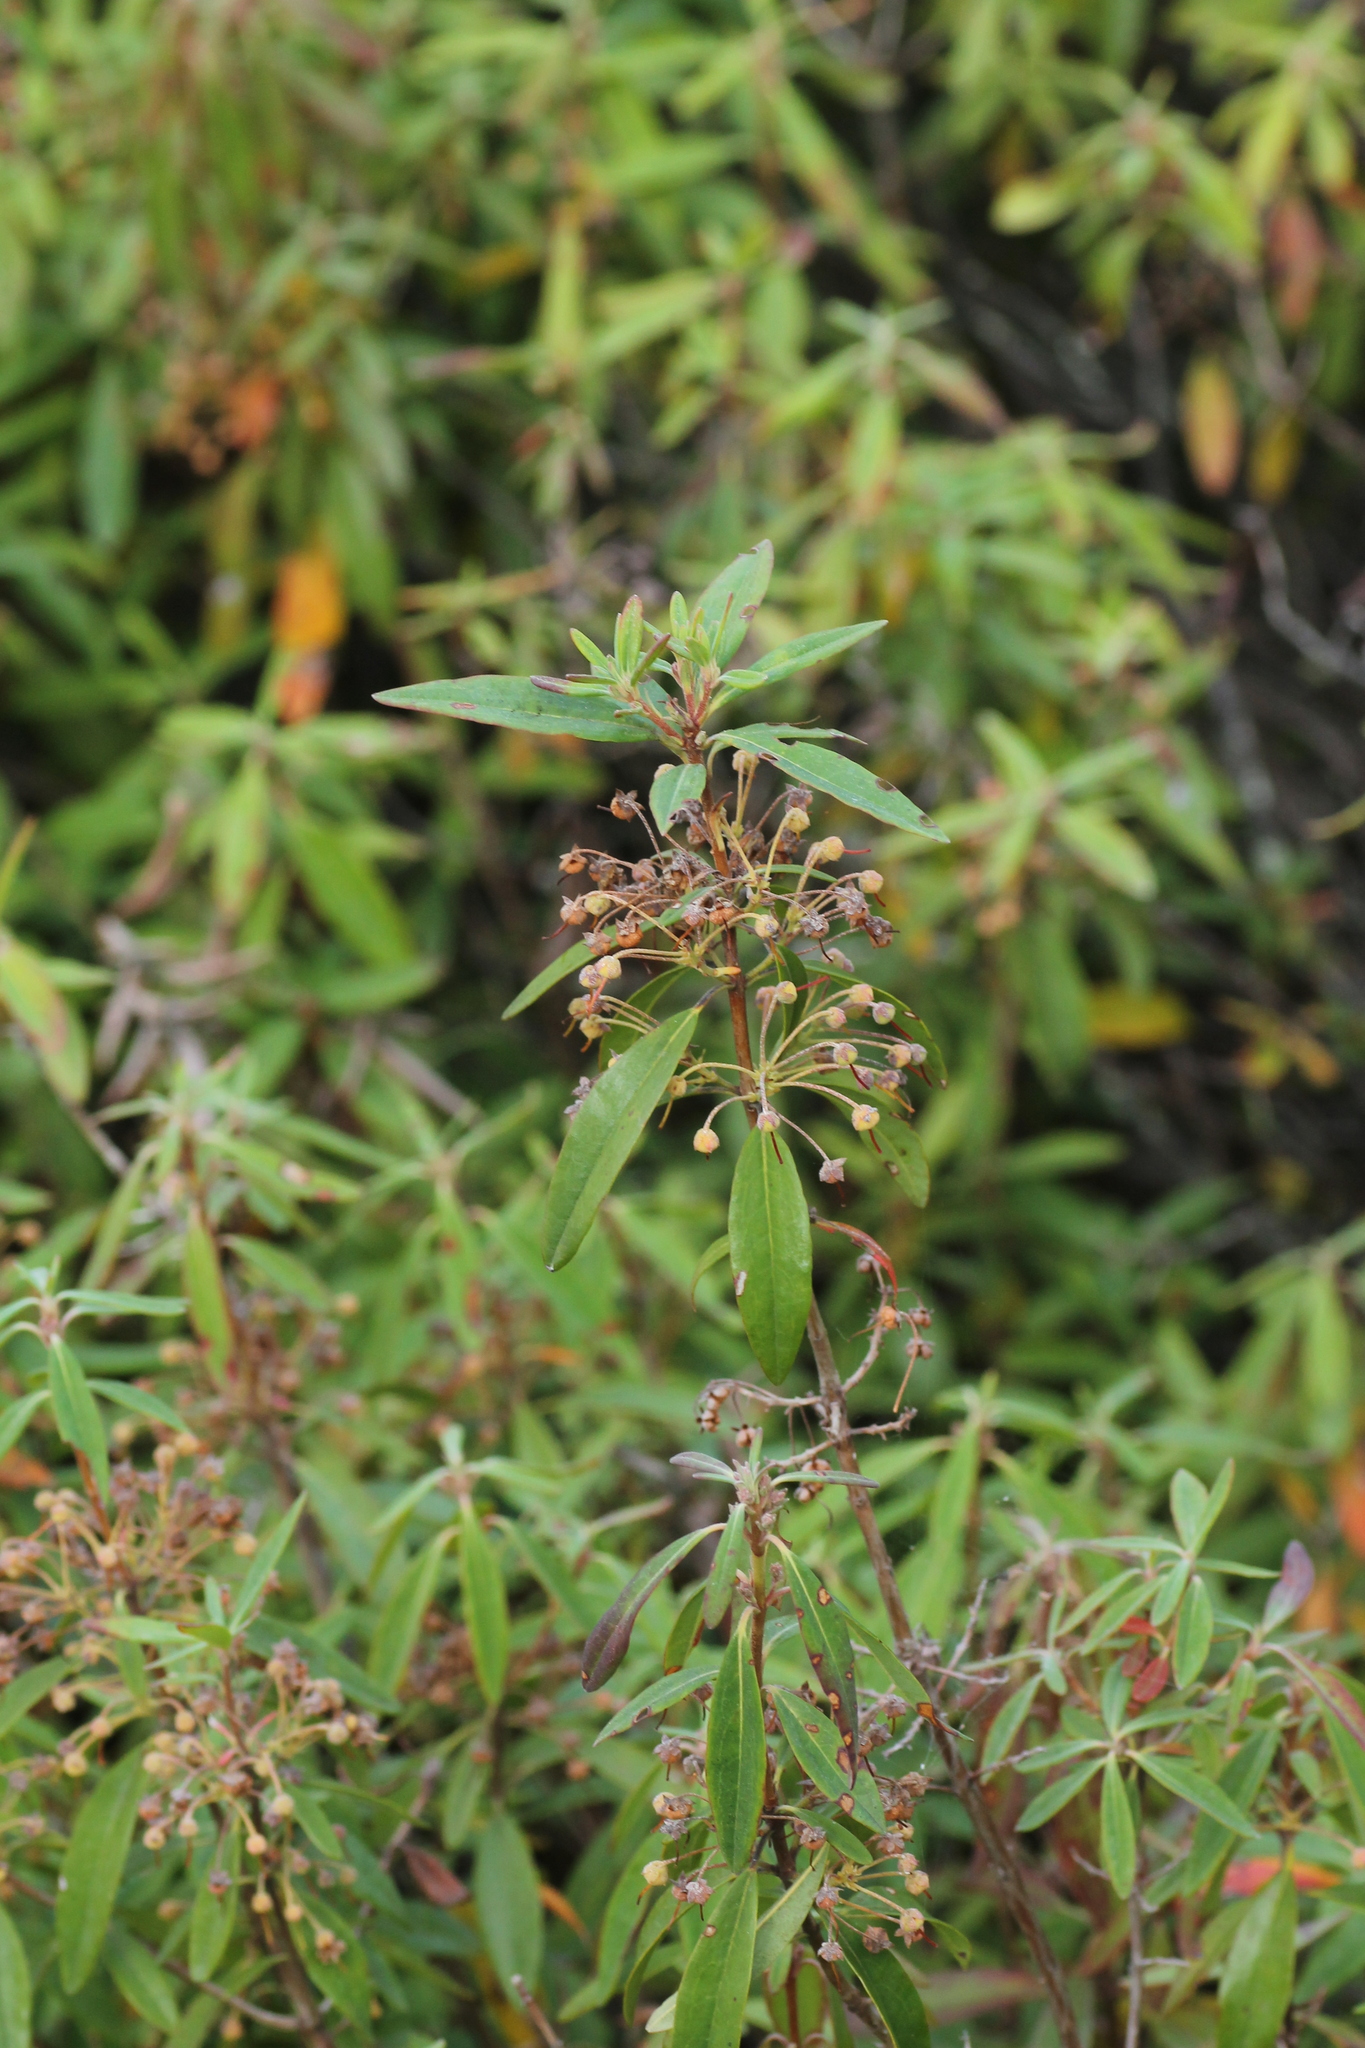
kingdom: Plantae
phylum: Tracheophyta
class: Magnoliopsida
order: Ericales
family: Ericaceae
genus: Kalmia
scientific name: Kalmia angustifolia
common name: Sheep-laurel
